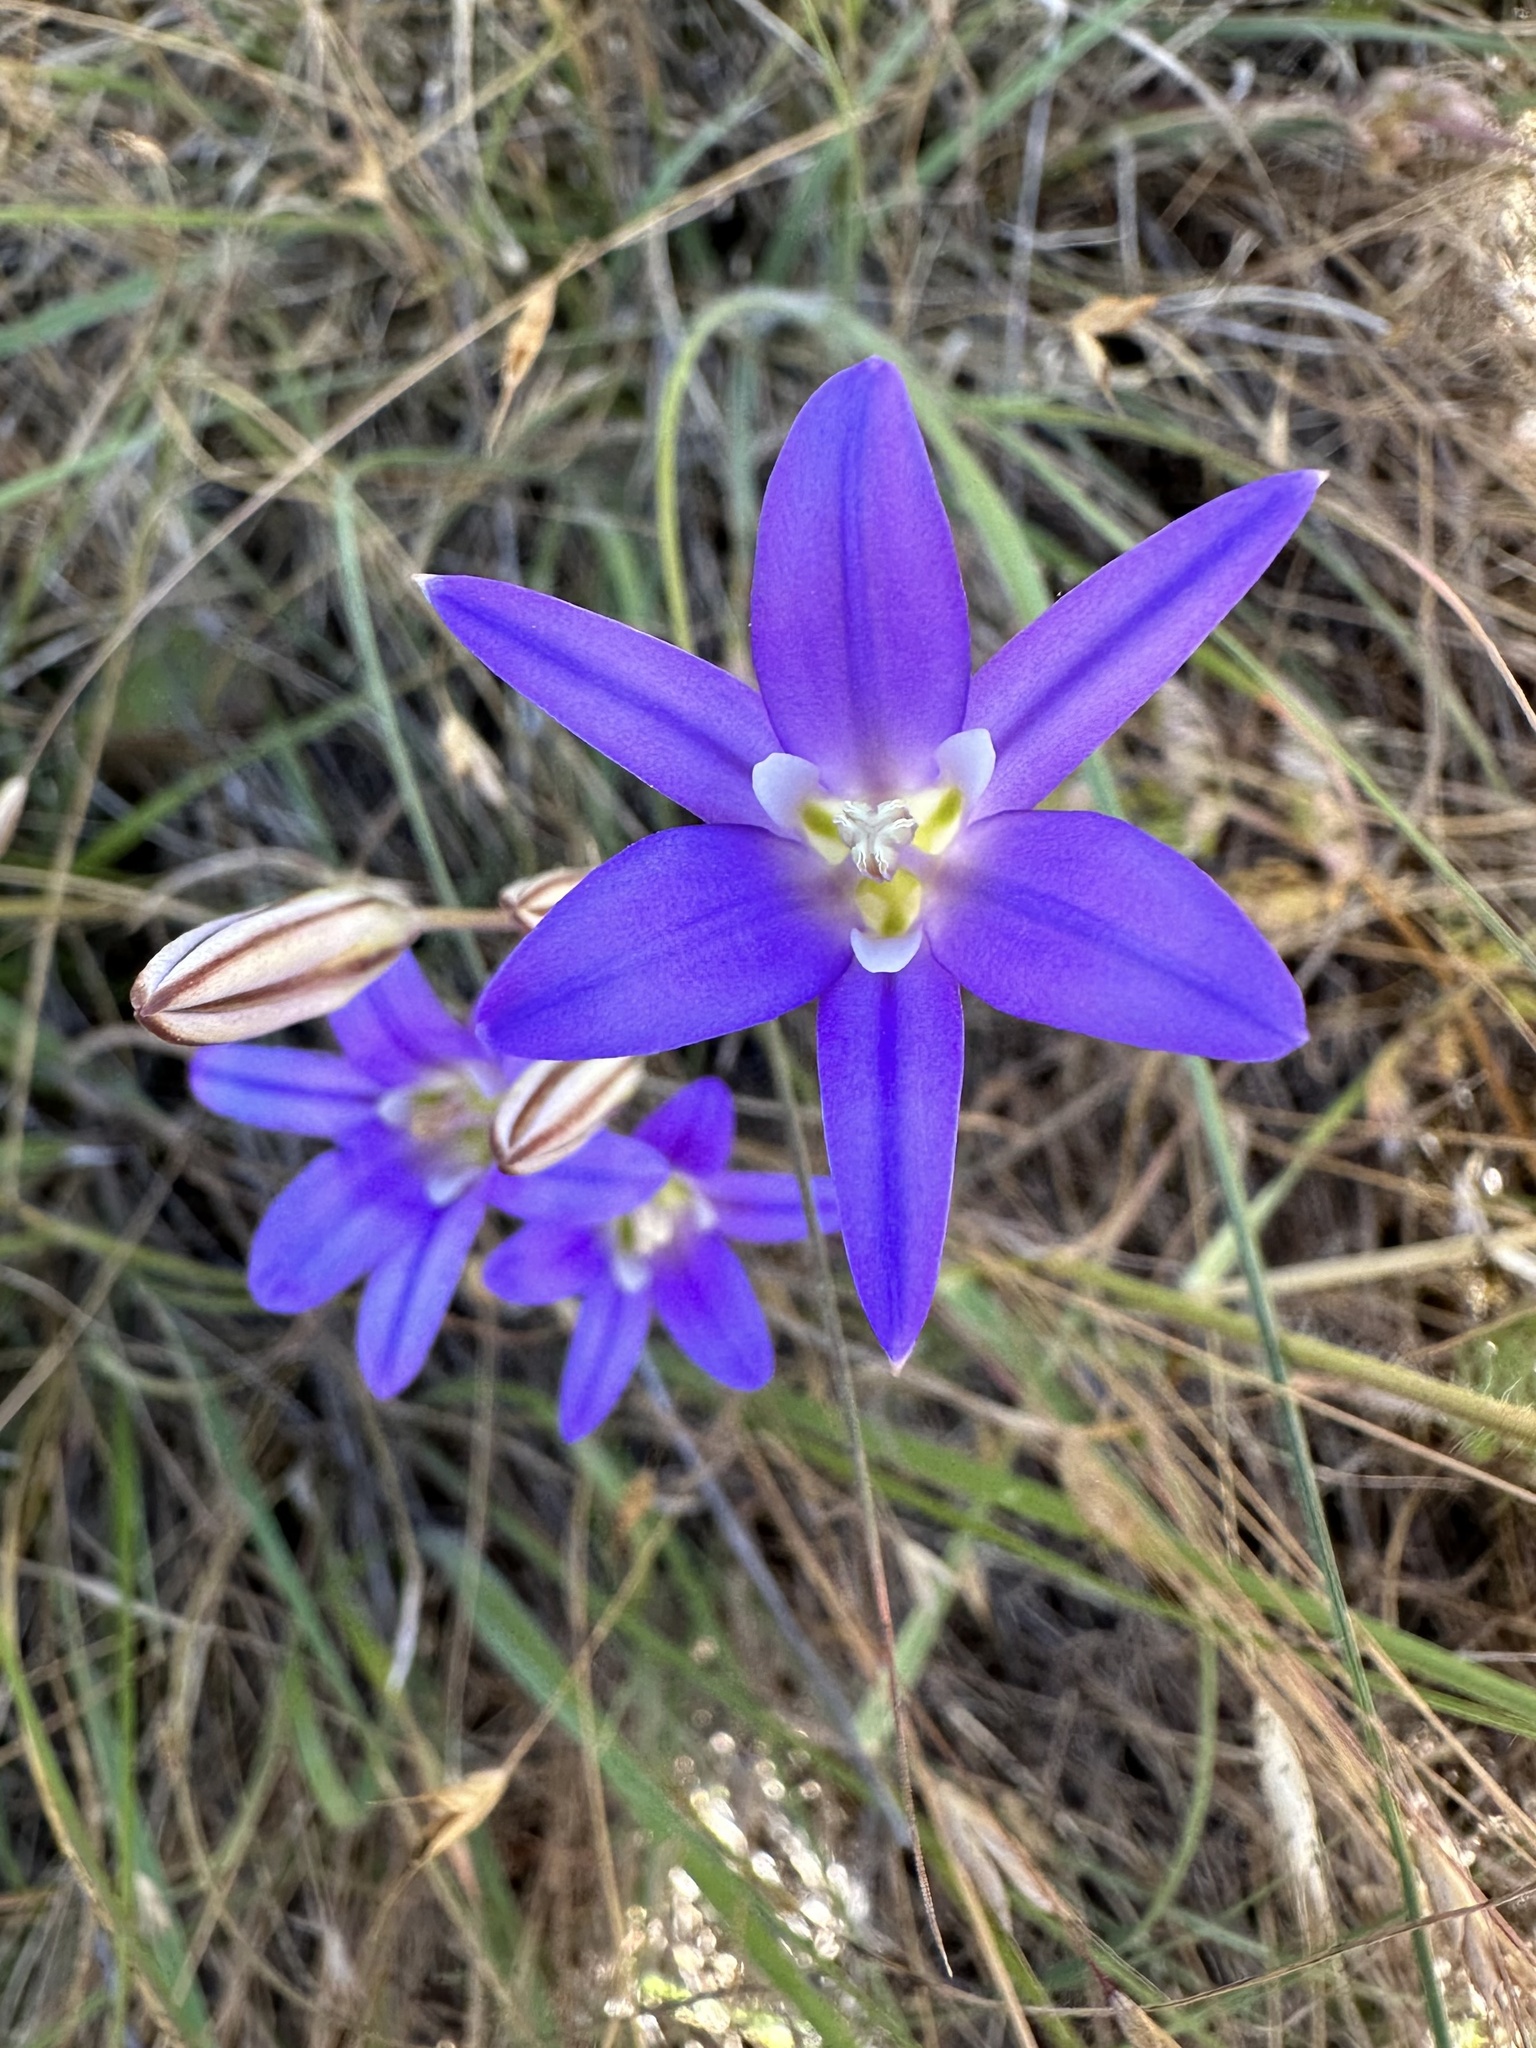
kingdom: Plantae
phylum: Tracheophyta
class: Liliopsida
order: Asparagales
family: Asparagaceae
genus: Brodiaea
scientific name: Brodiaea elegans
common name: Elegant cluster-lily
